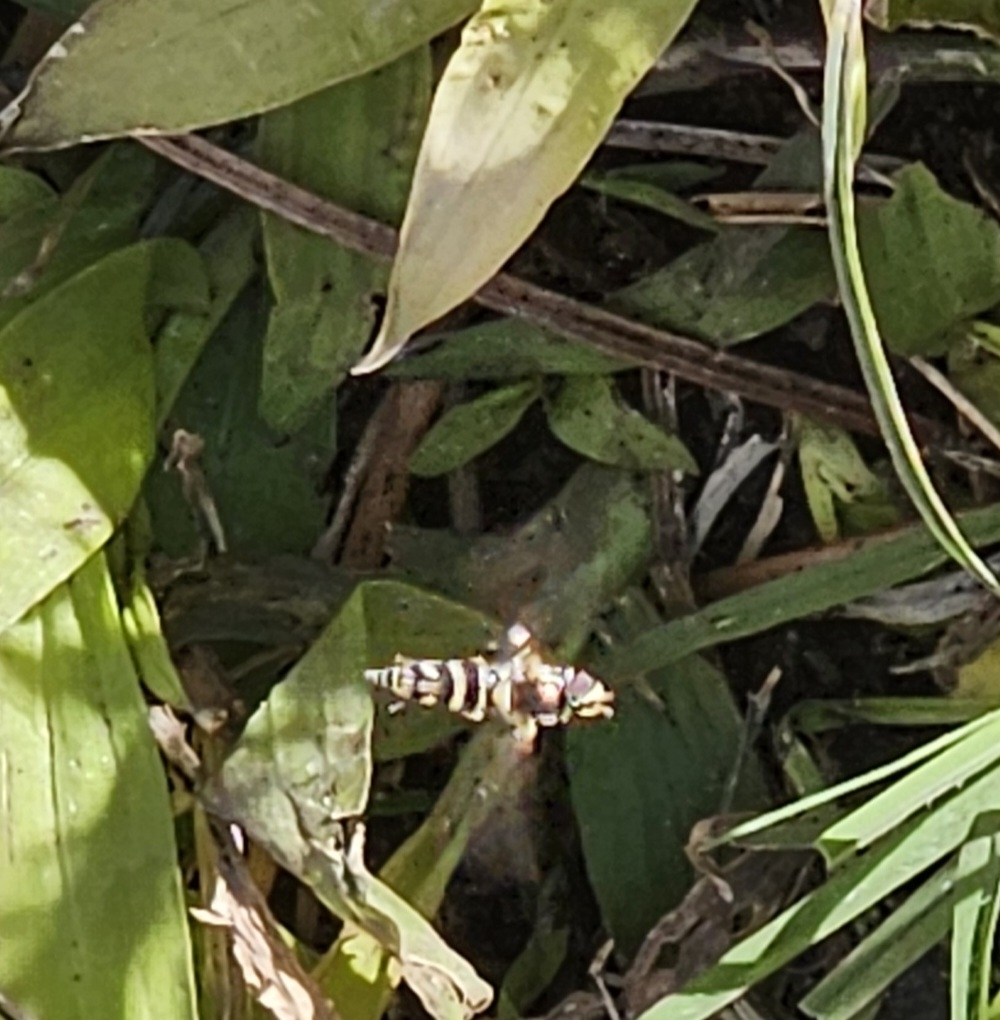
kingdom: Animalia
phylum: Arthropoda
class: Insecta
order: Diptera
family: Syrphidae
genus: Allograpta
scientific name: Allograpta exotica
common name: Syrphid fly
